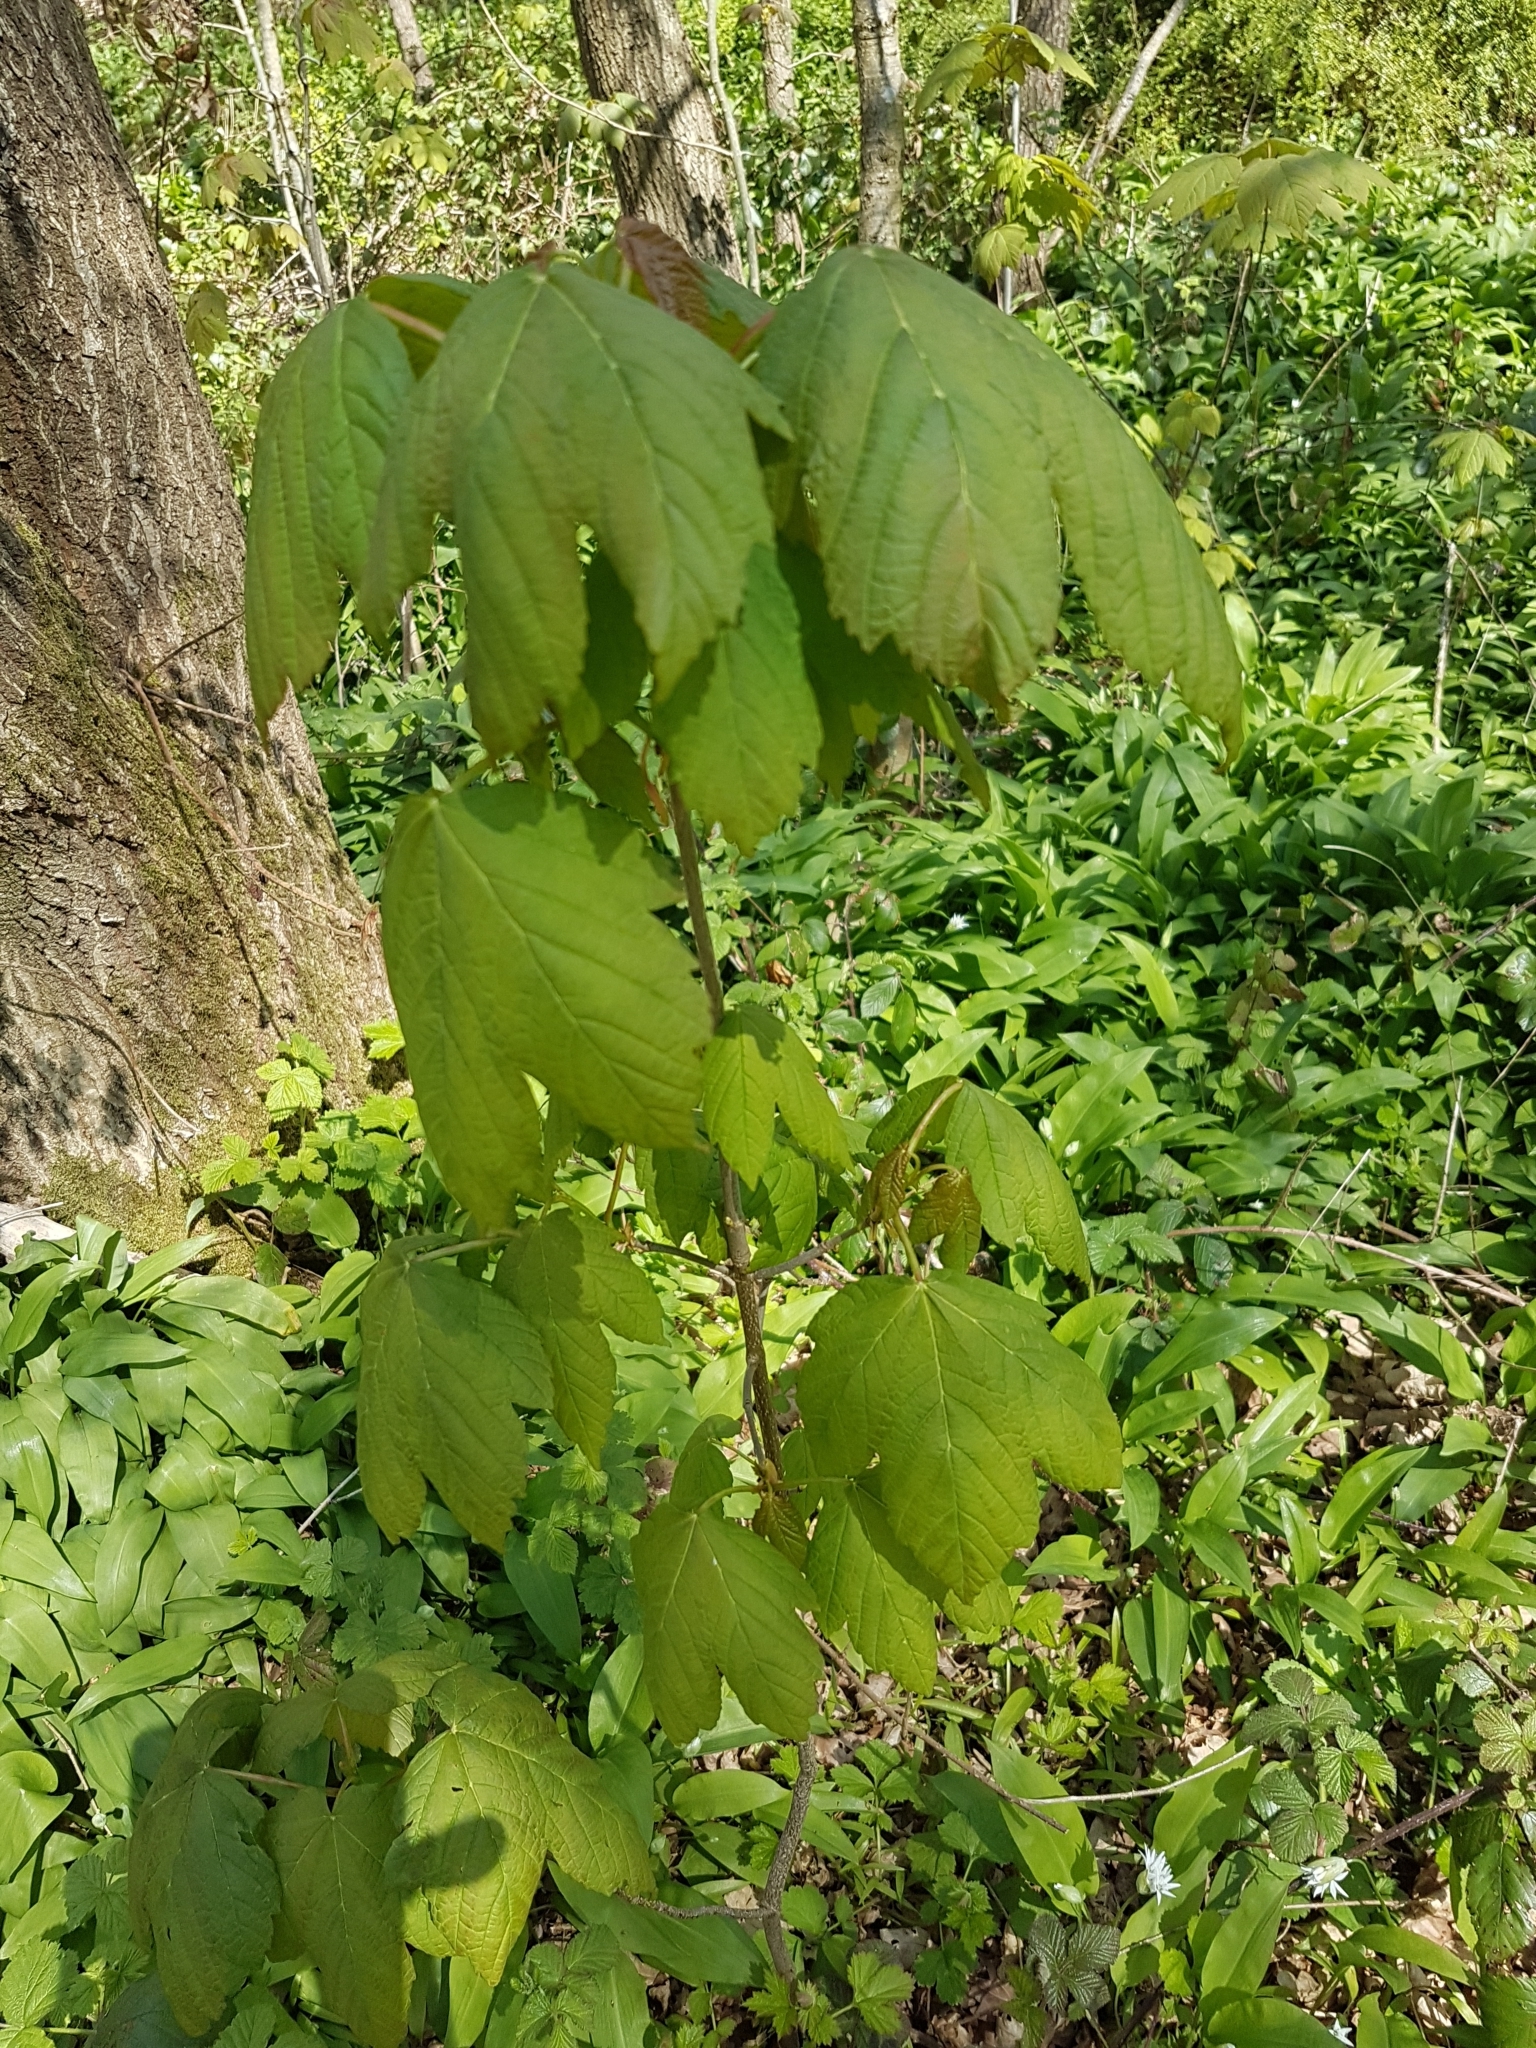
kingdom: Plantae
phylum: Tracheophyta
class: Magnoliopsida
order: Sapindales
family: Sapindaceae
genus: Acer
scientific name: Acer pseudoplatanus
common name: Sycamore
